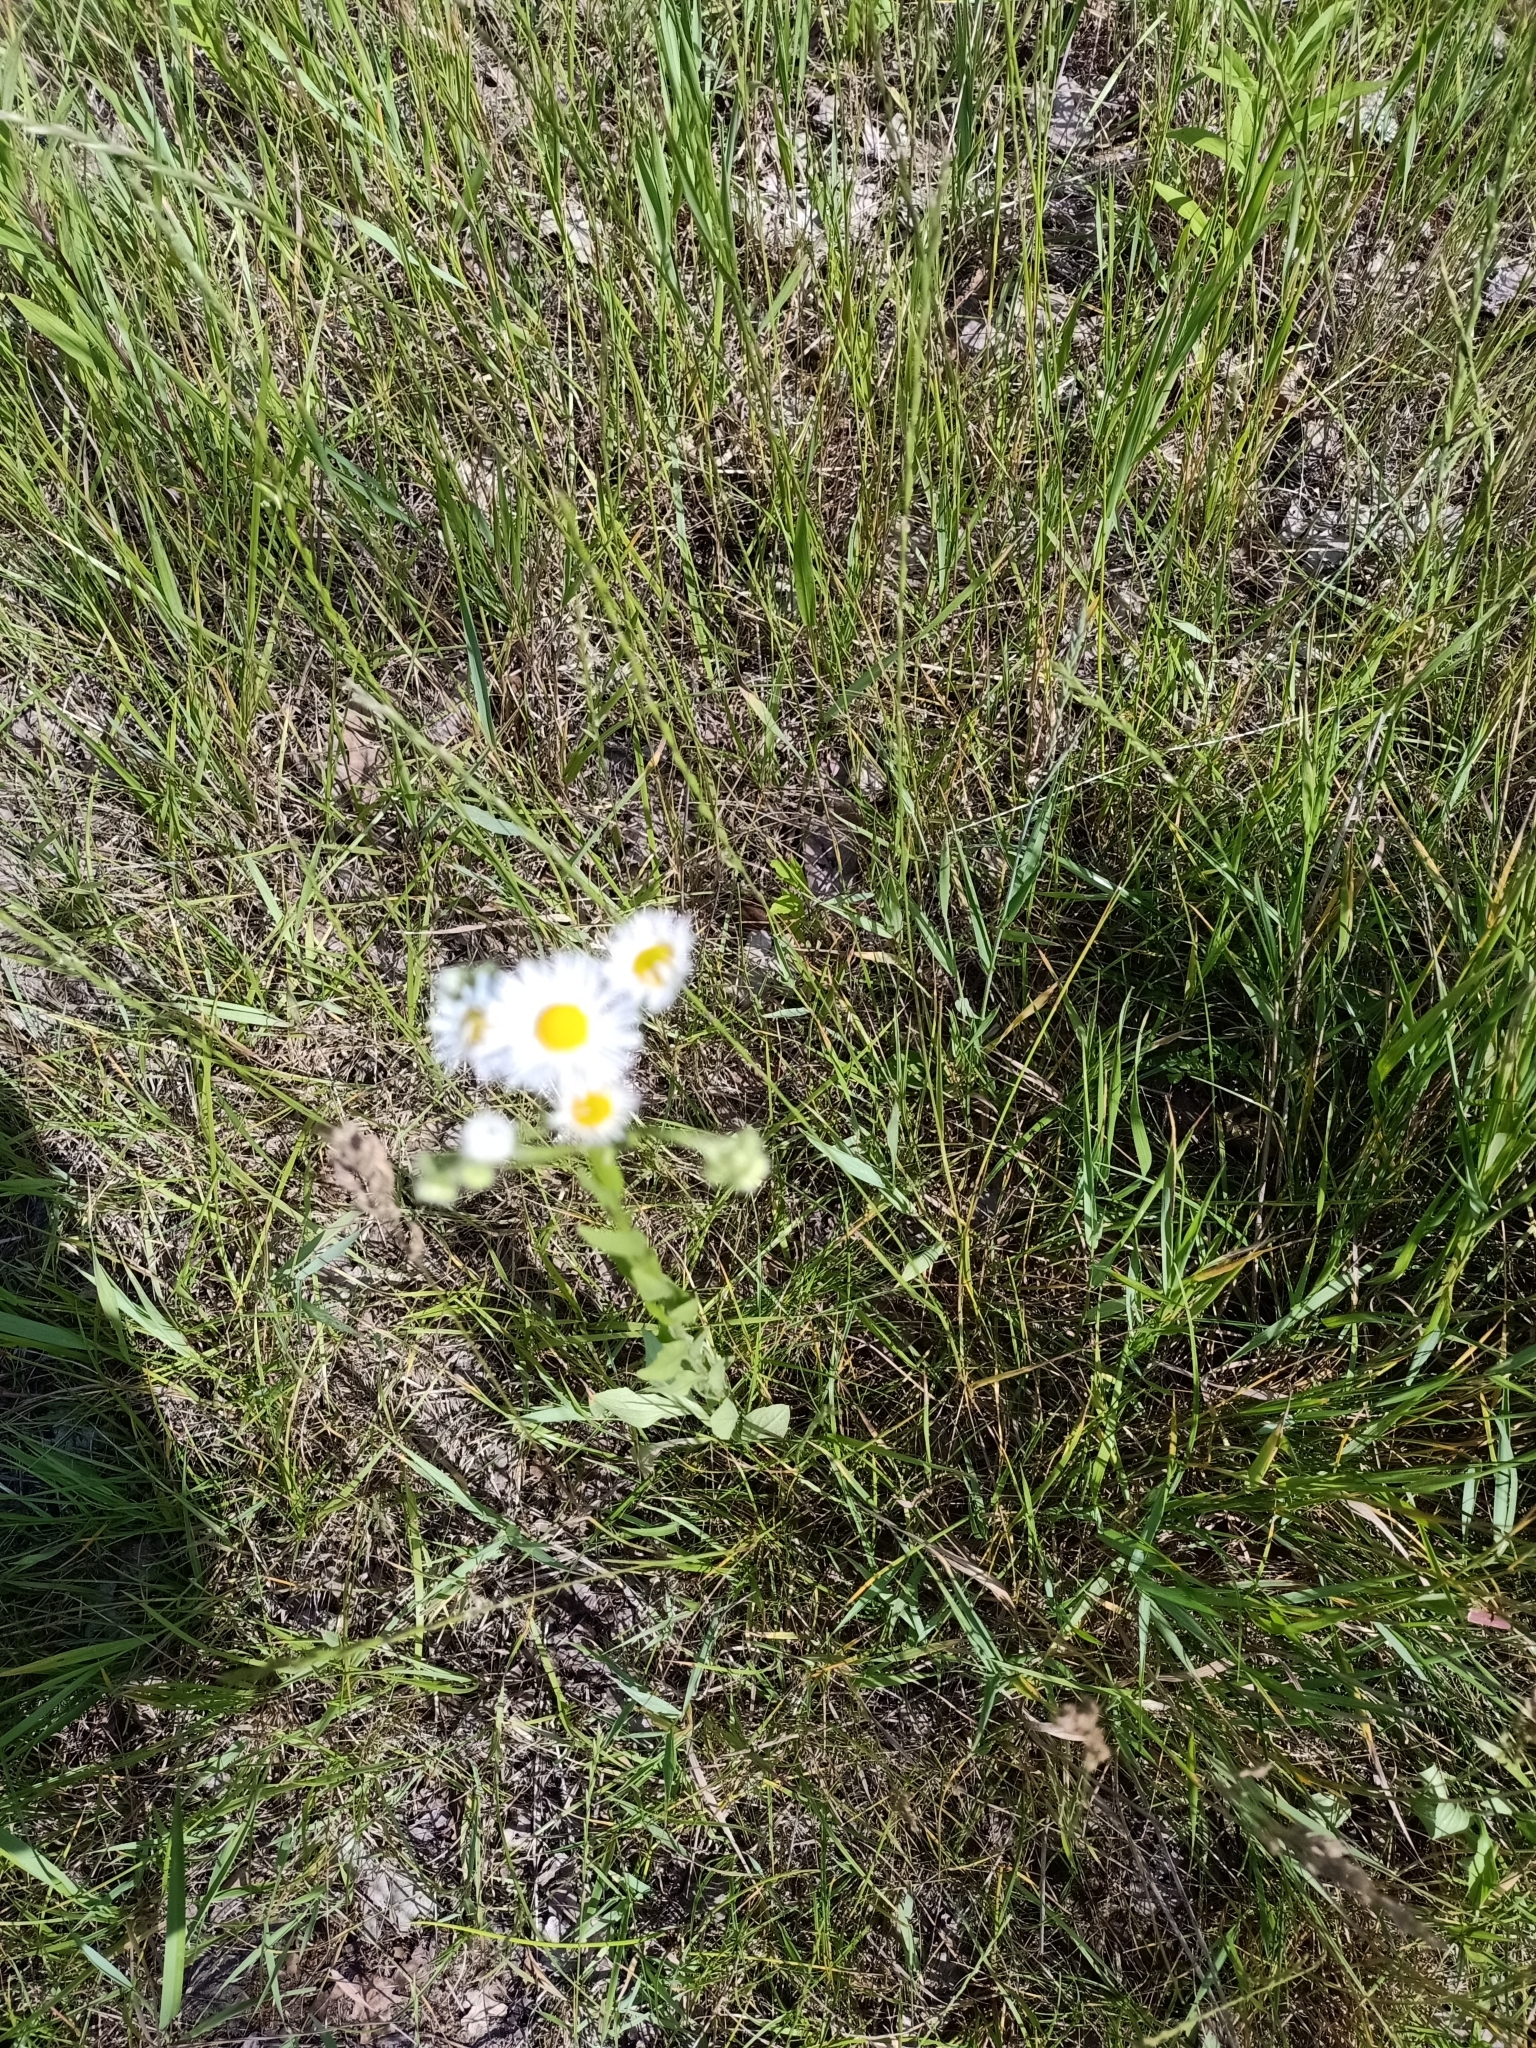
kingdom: Plantae
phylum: Tracheophyta
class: Magnoliopsida
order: Asterales
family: Asteraceae
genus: Erigeron
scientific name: Erigeron annuus
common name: Tall fleabane
